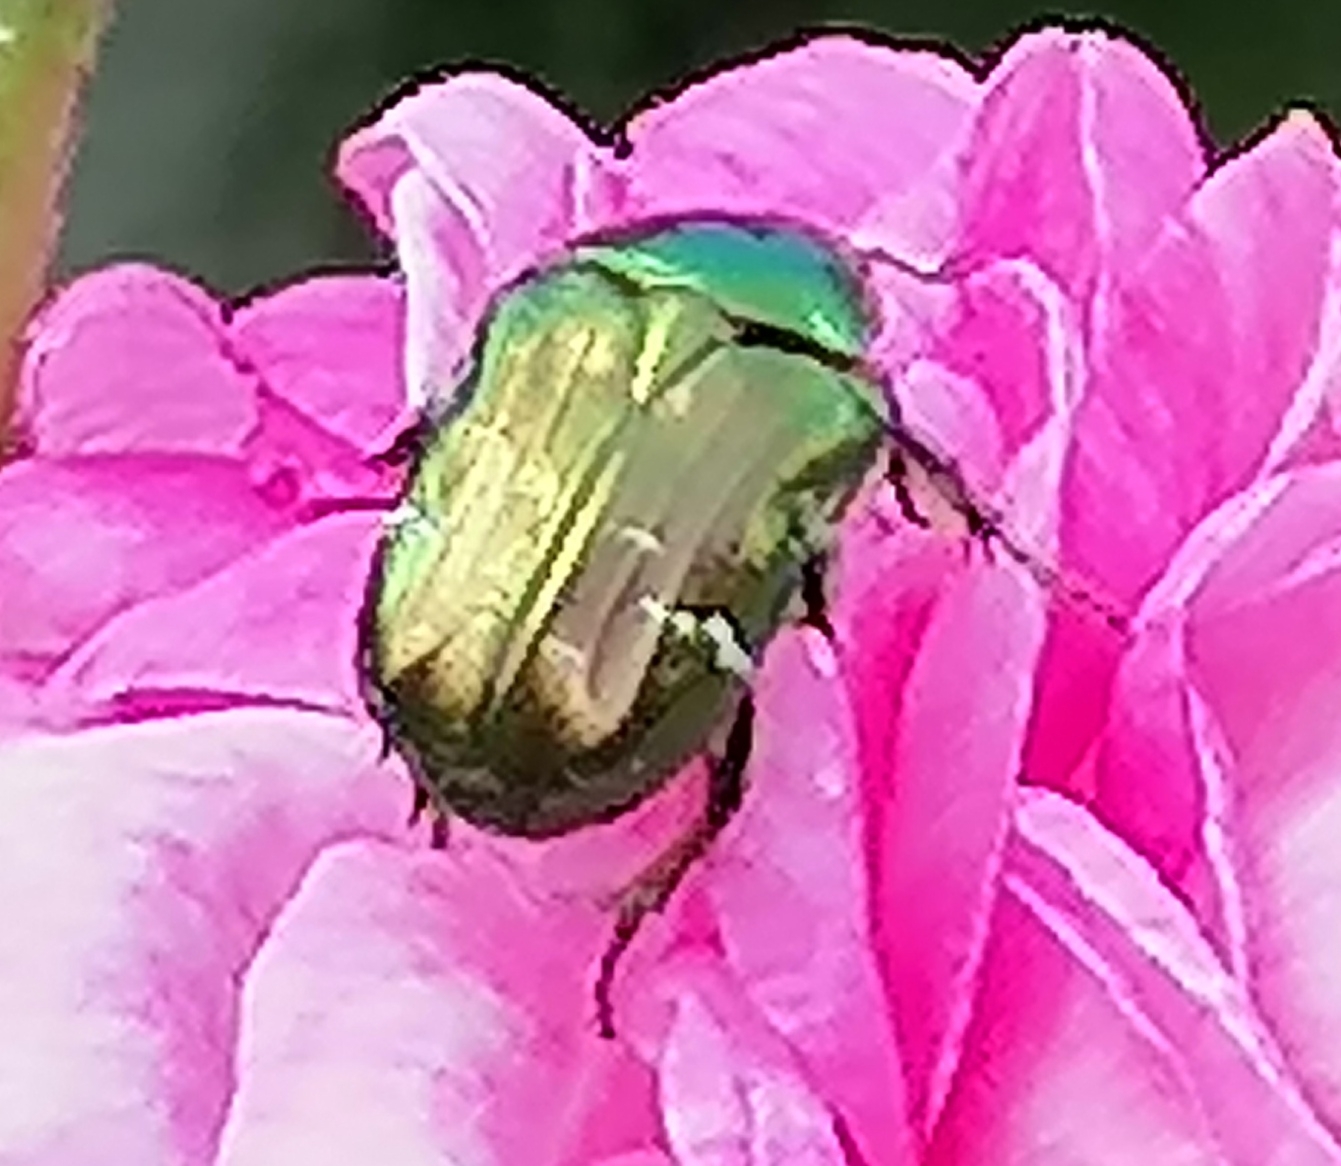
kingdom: Animalia
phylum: Arthropoda
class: Insecta
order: Coleoptera
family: Scarabaeidae
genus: Cetonia
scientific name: Cetonia aurata
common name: Rose chafer
